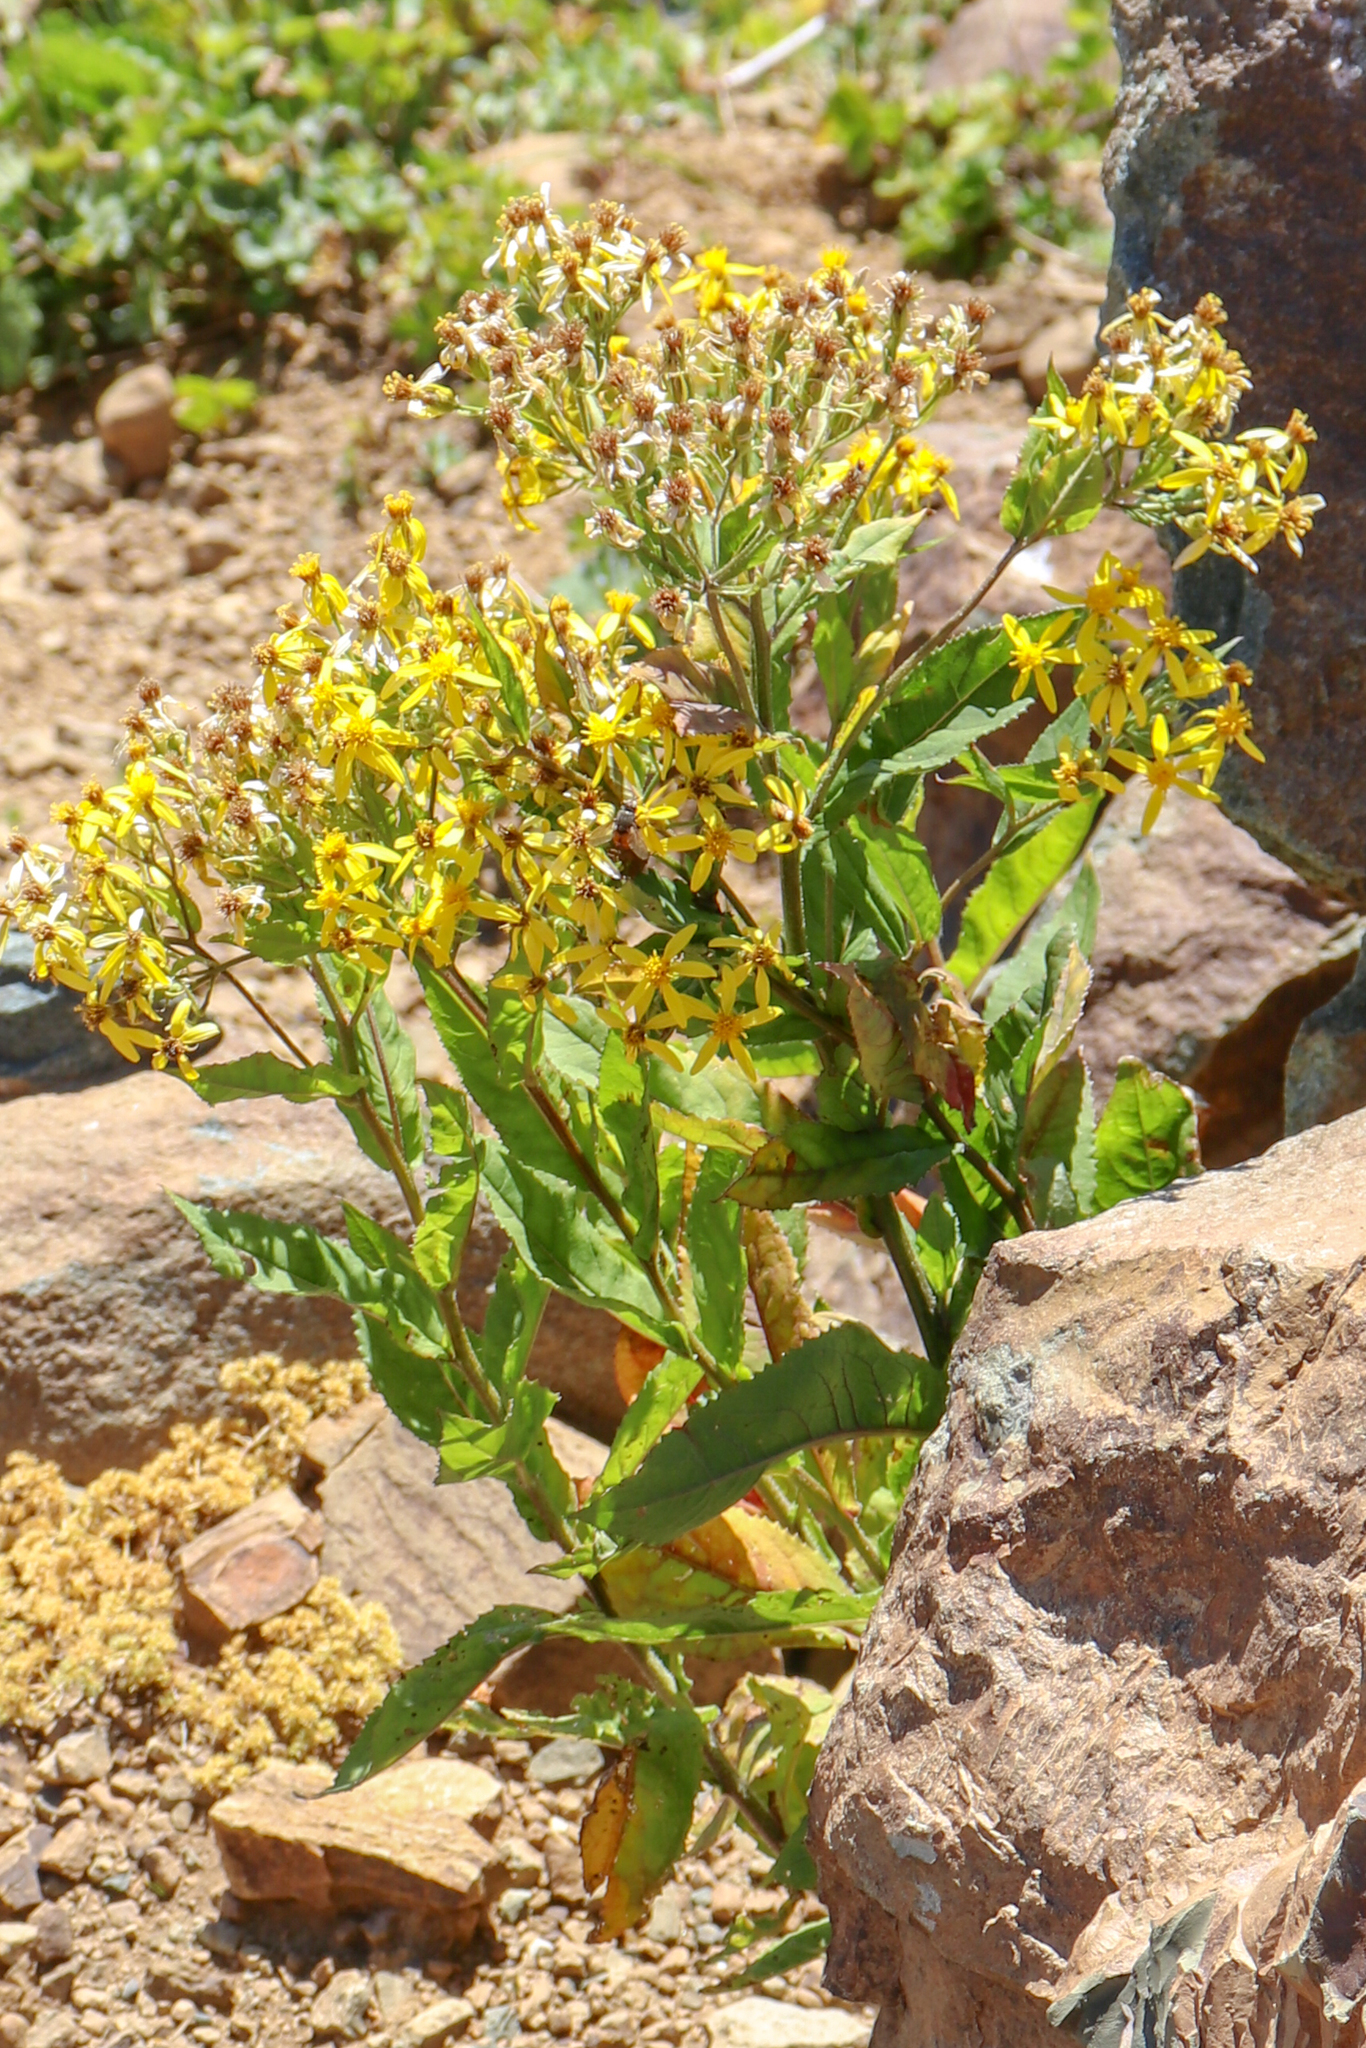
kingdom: Plantae
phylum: Tracheophyta
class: Magnoliopsida
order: Asterales
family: Asteraceae
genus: Senecio
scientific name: Senecio propinquus
